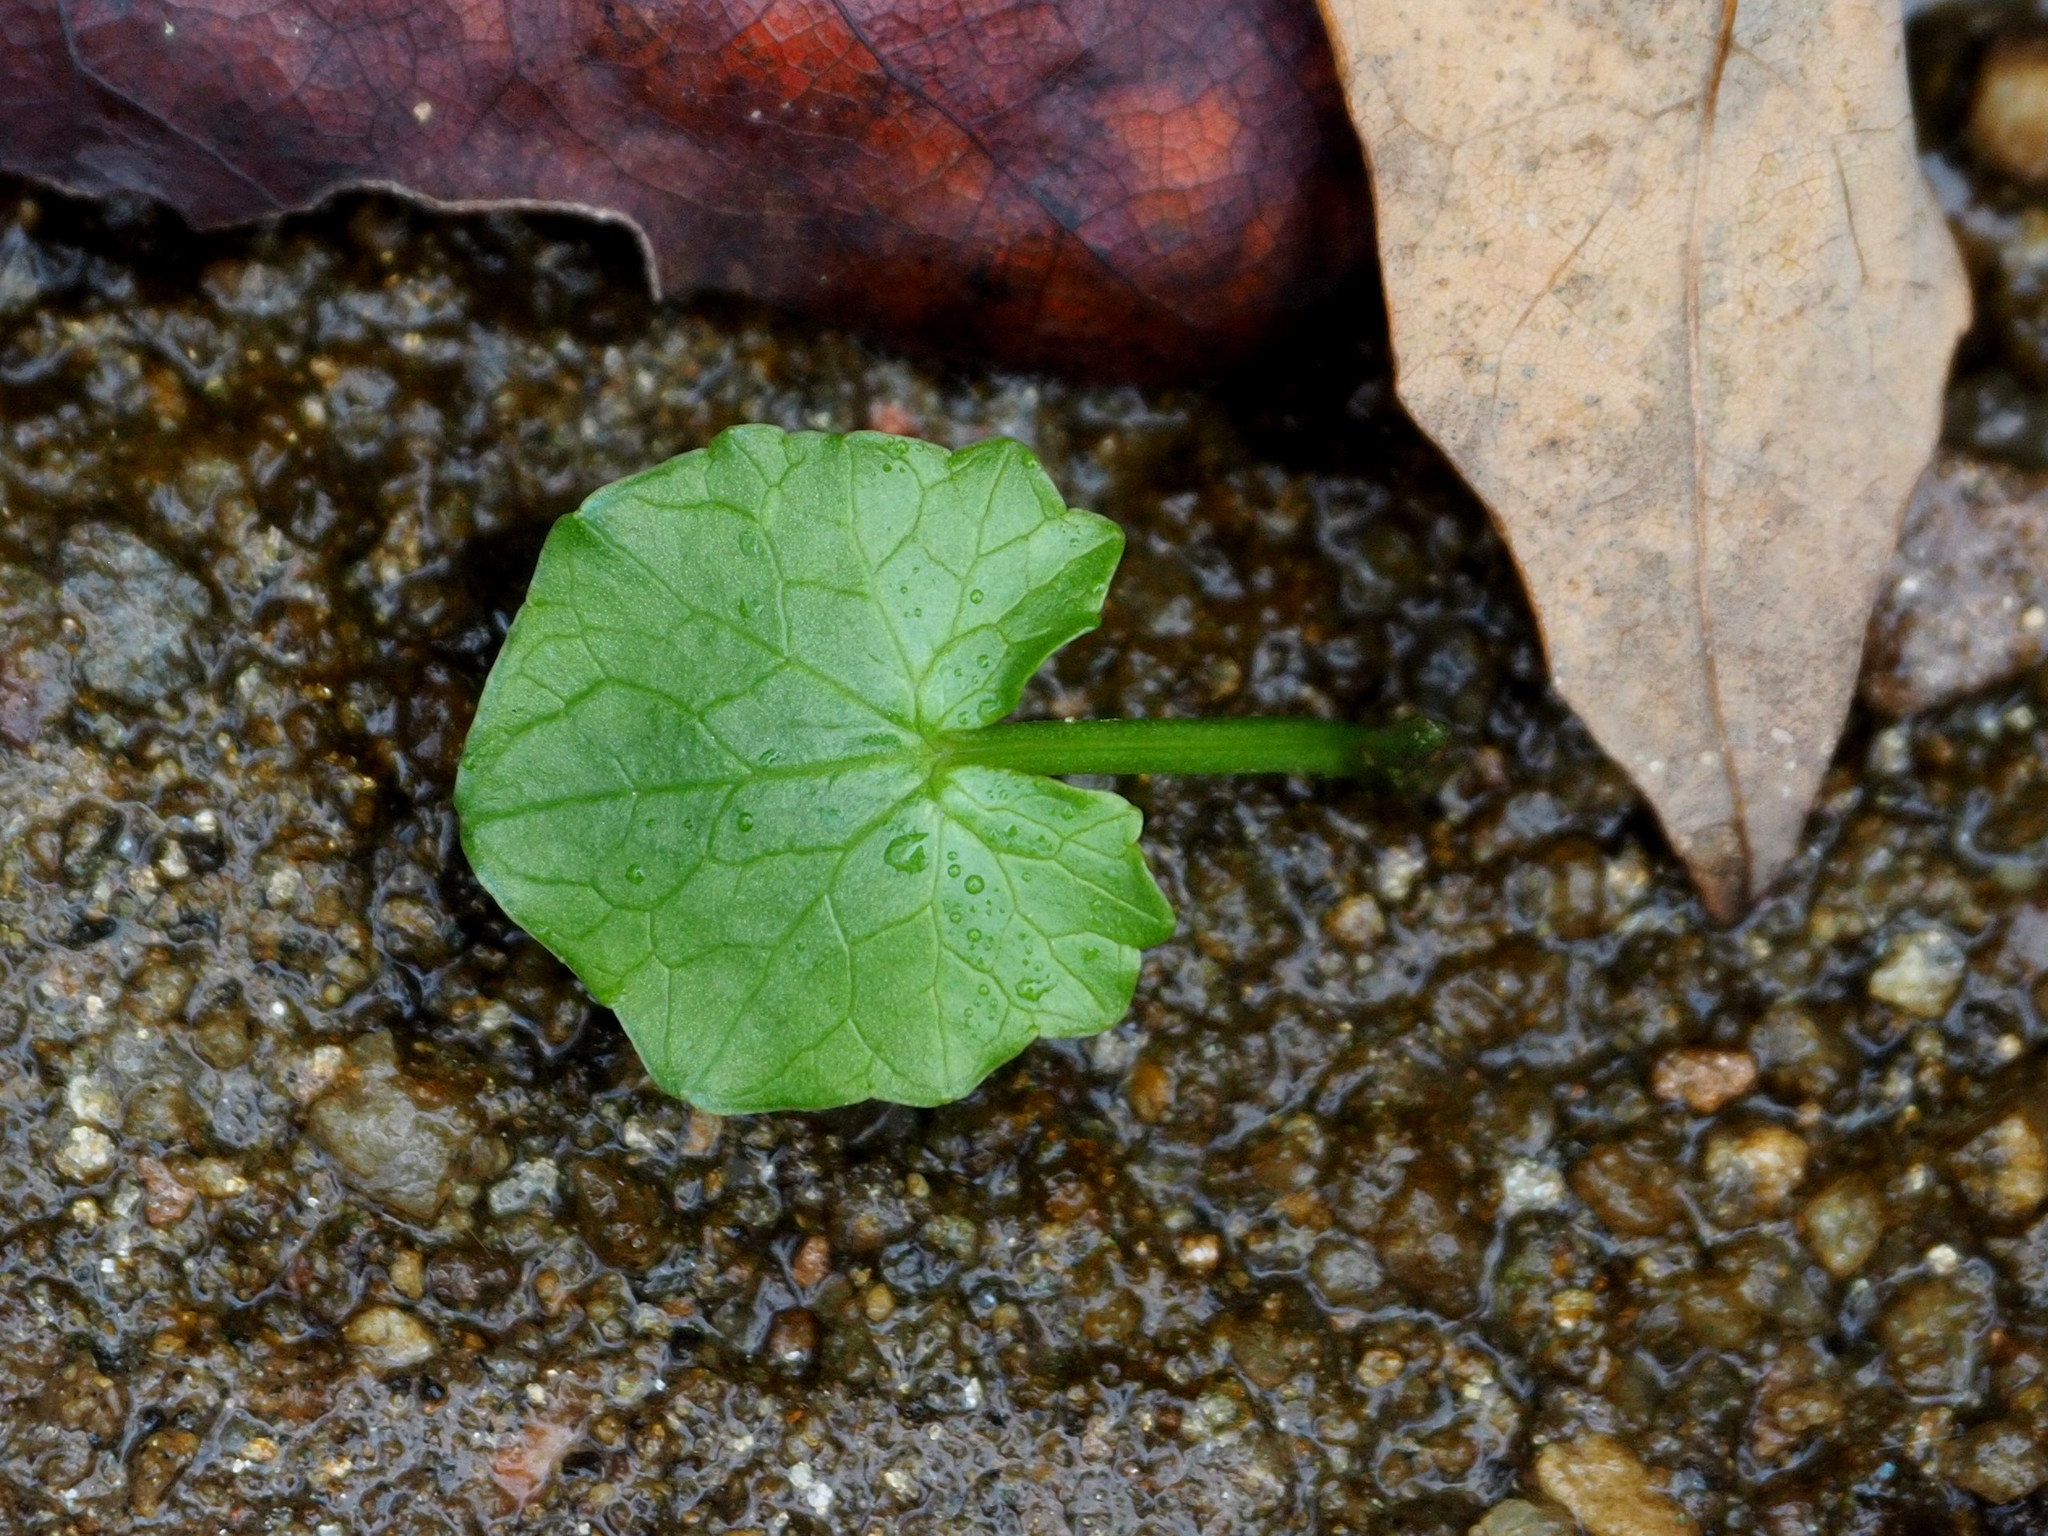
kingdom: Plantae
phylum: Tracheophyta
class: Magnoliopsida
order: Ranunculales
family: Ranunculaceae
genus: Ficaria
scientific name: Ficaria verna
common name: Lesser celandine
